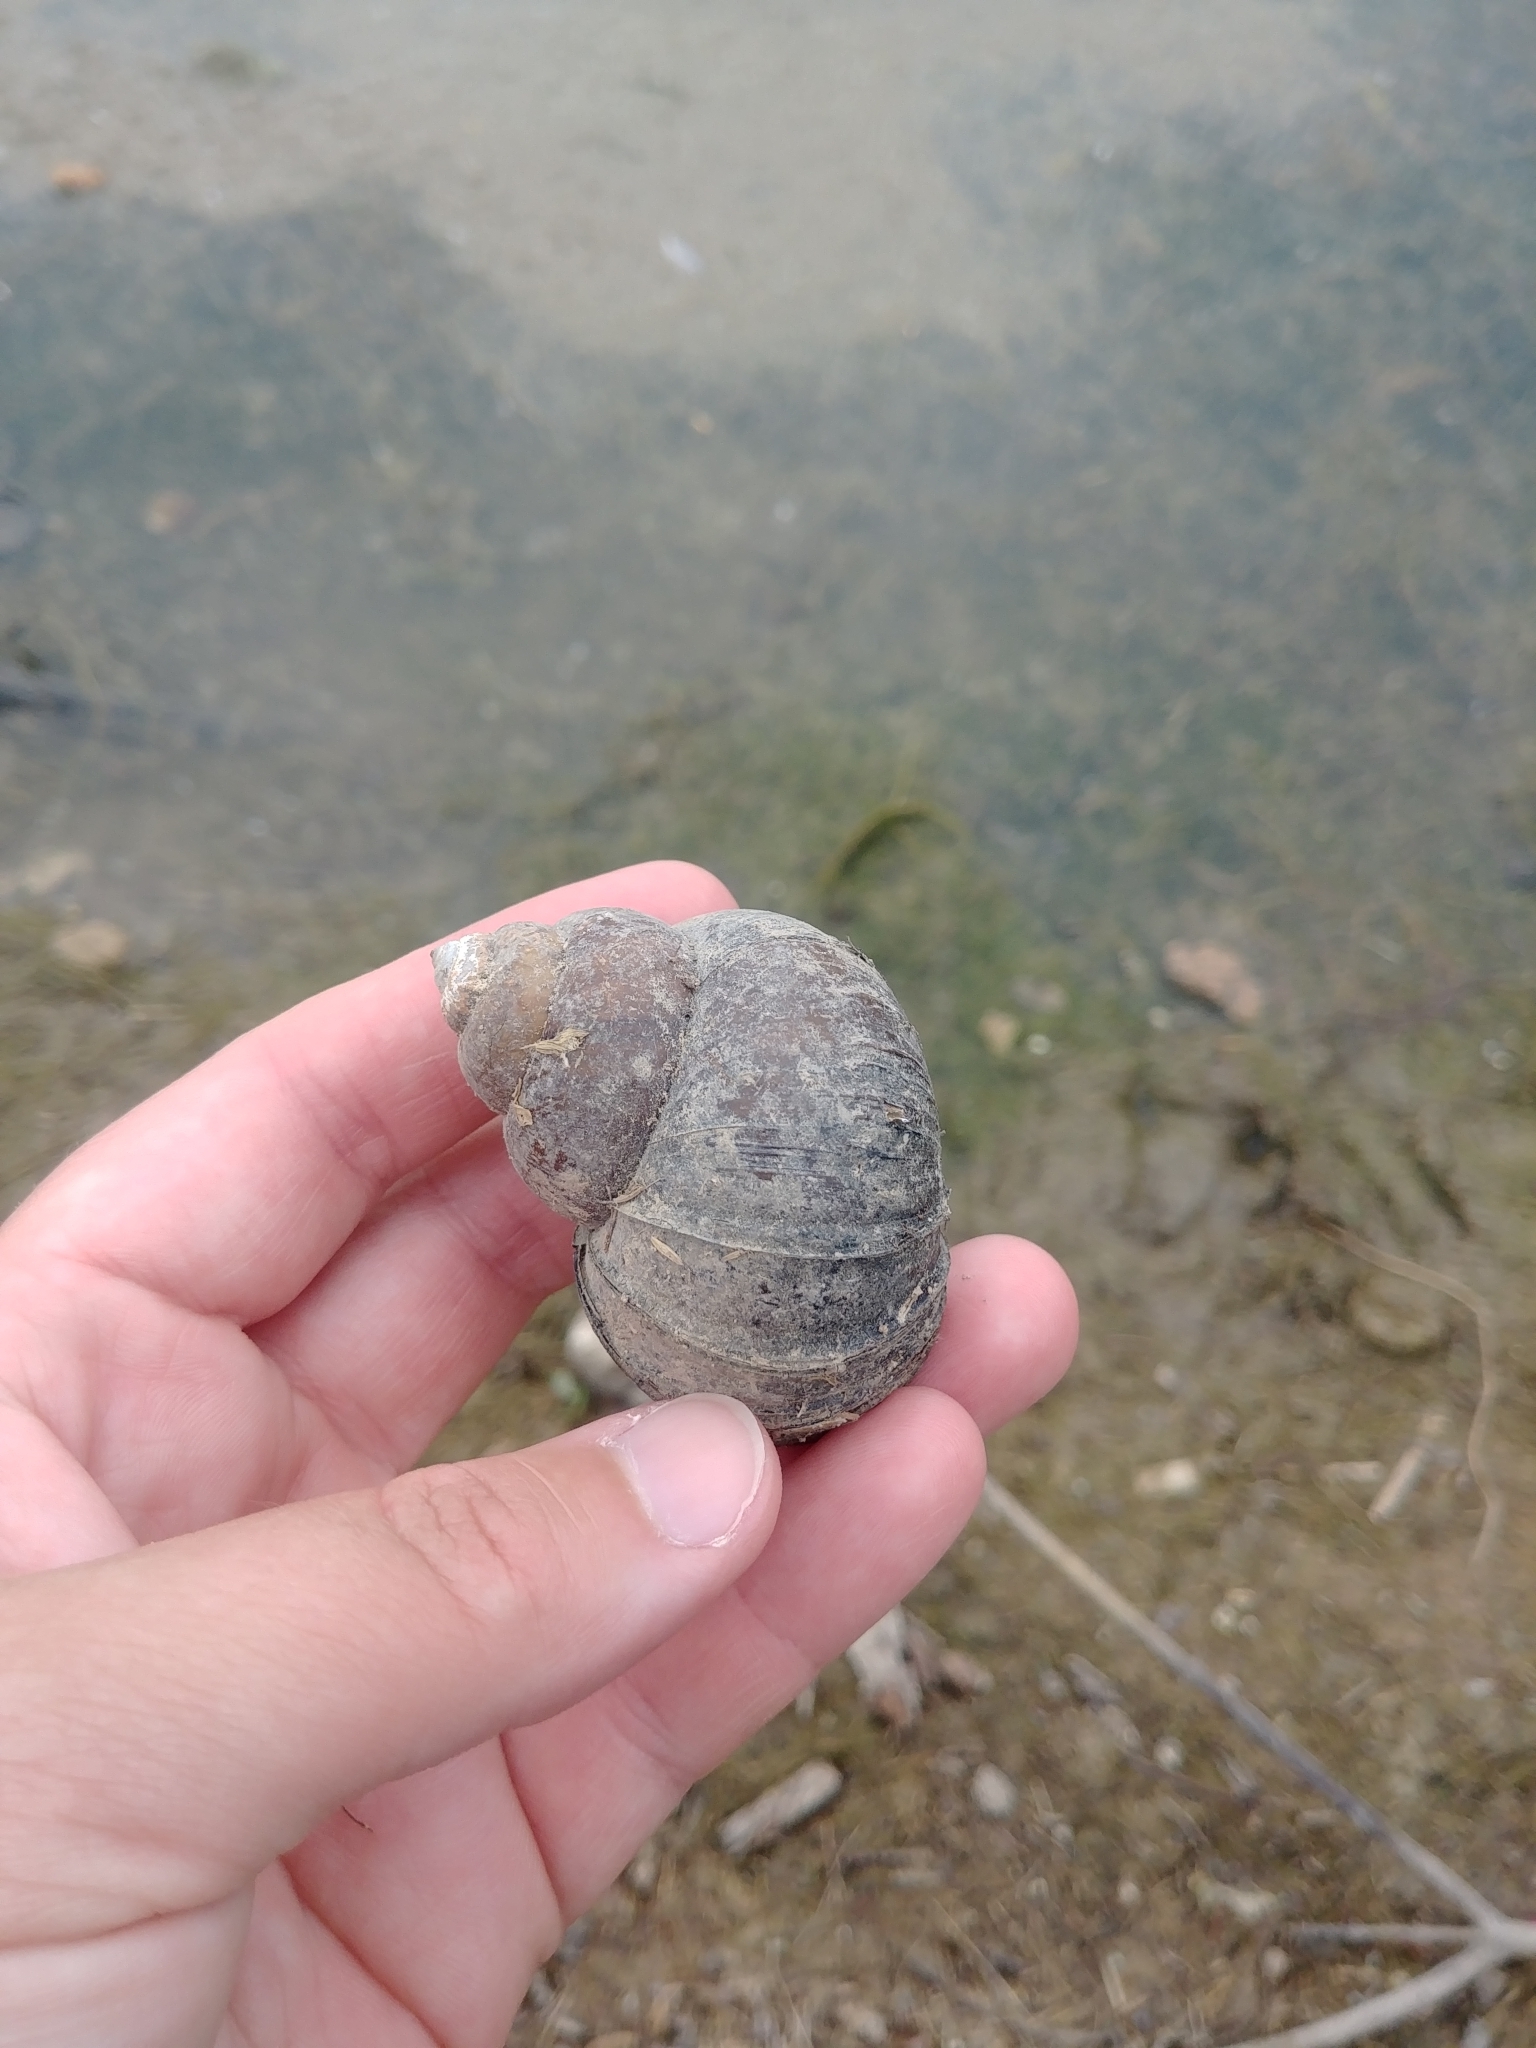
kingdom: Animalia
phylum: Mollusca
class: Gastropoda
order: Architaenioglossa
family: Viviparidae
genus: Cipangopaludina
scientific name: Cipangopaludina chinensis
